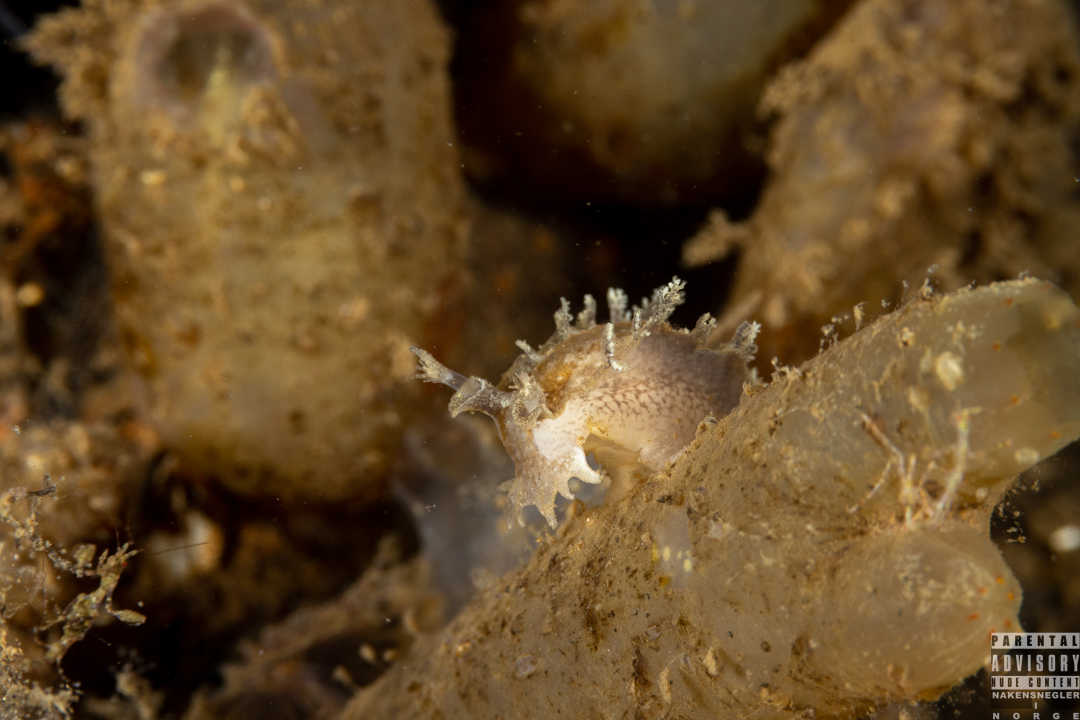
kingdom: Animalia
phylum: Mollusca
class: Gastropoda
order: Nudibranchia
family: Tritoniidae
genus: Duvaucelia
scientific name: Duvaucelia plebeia
